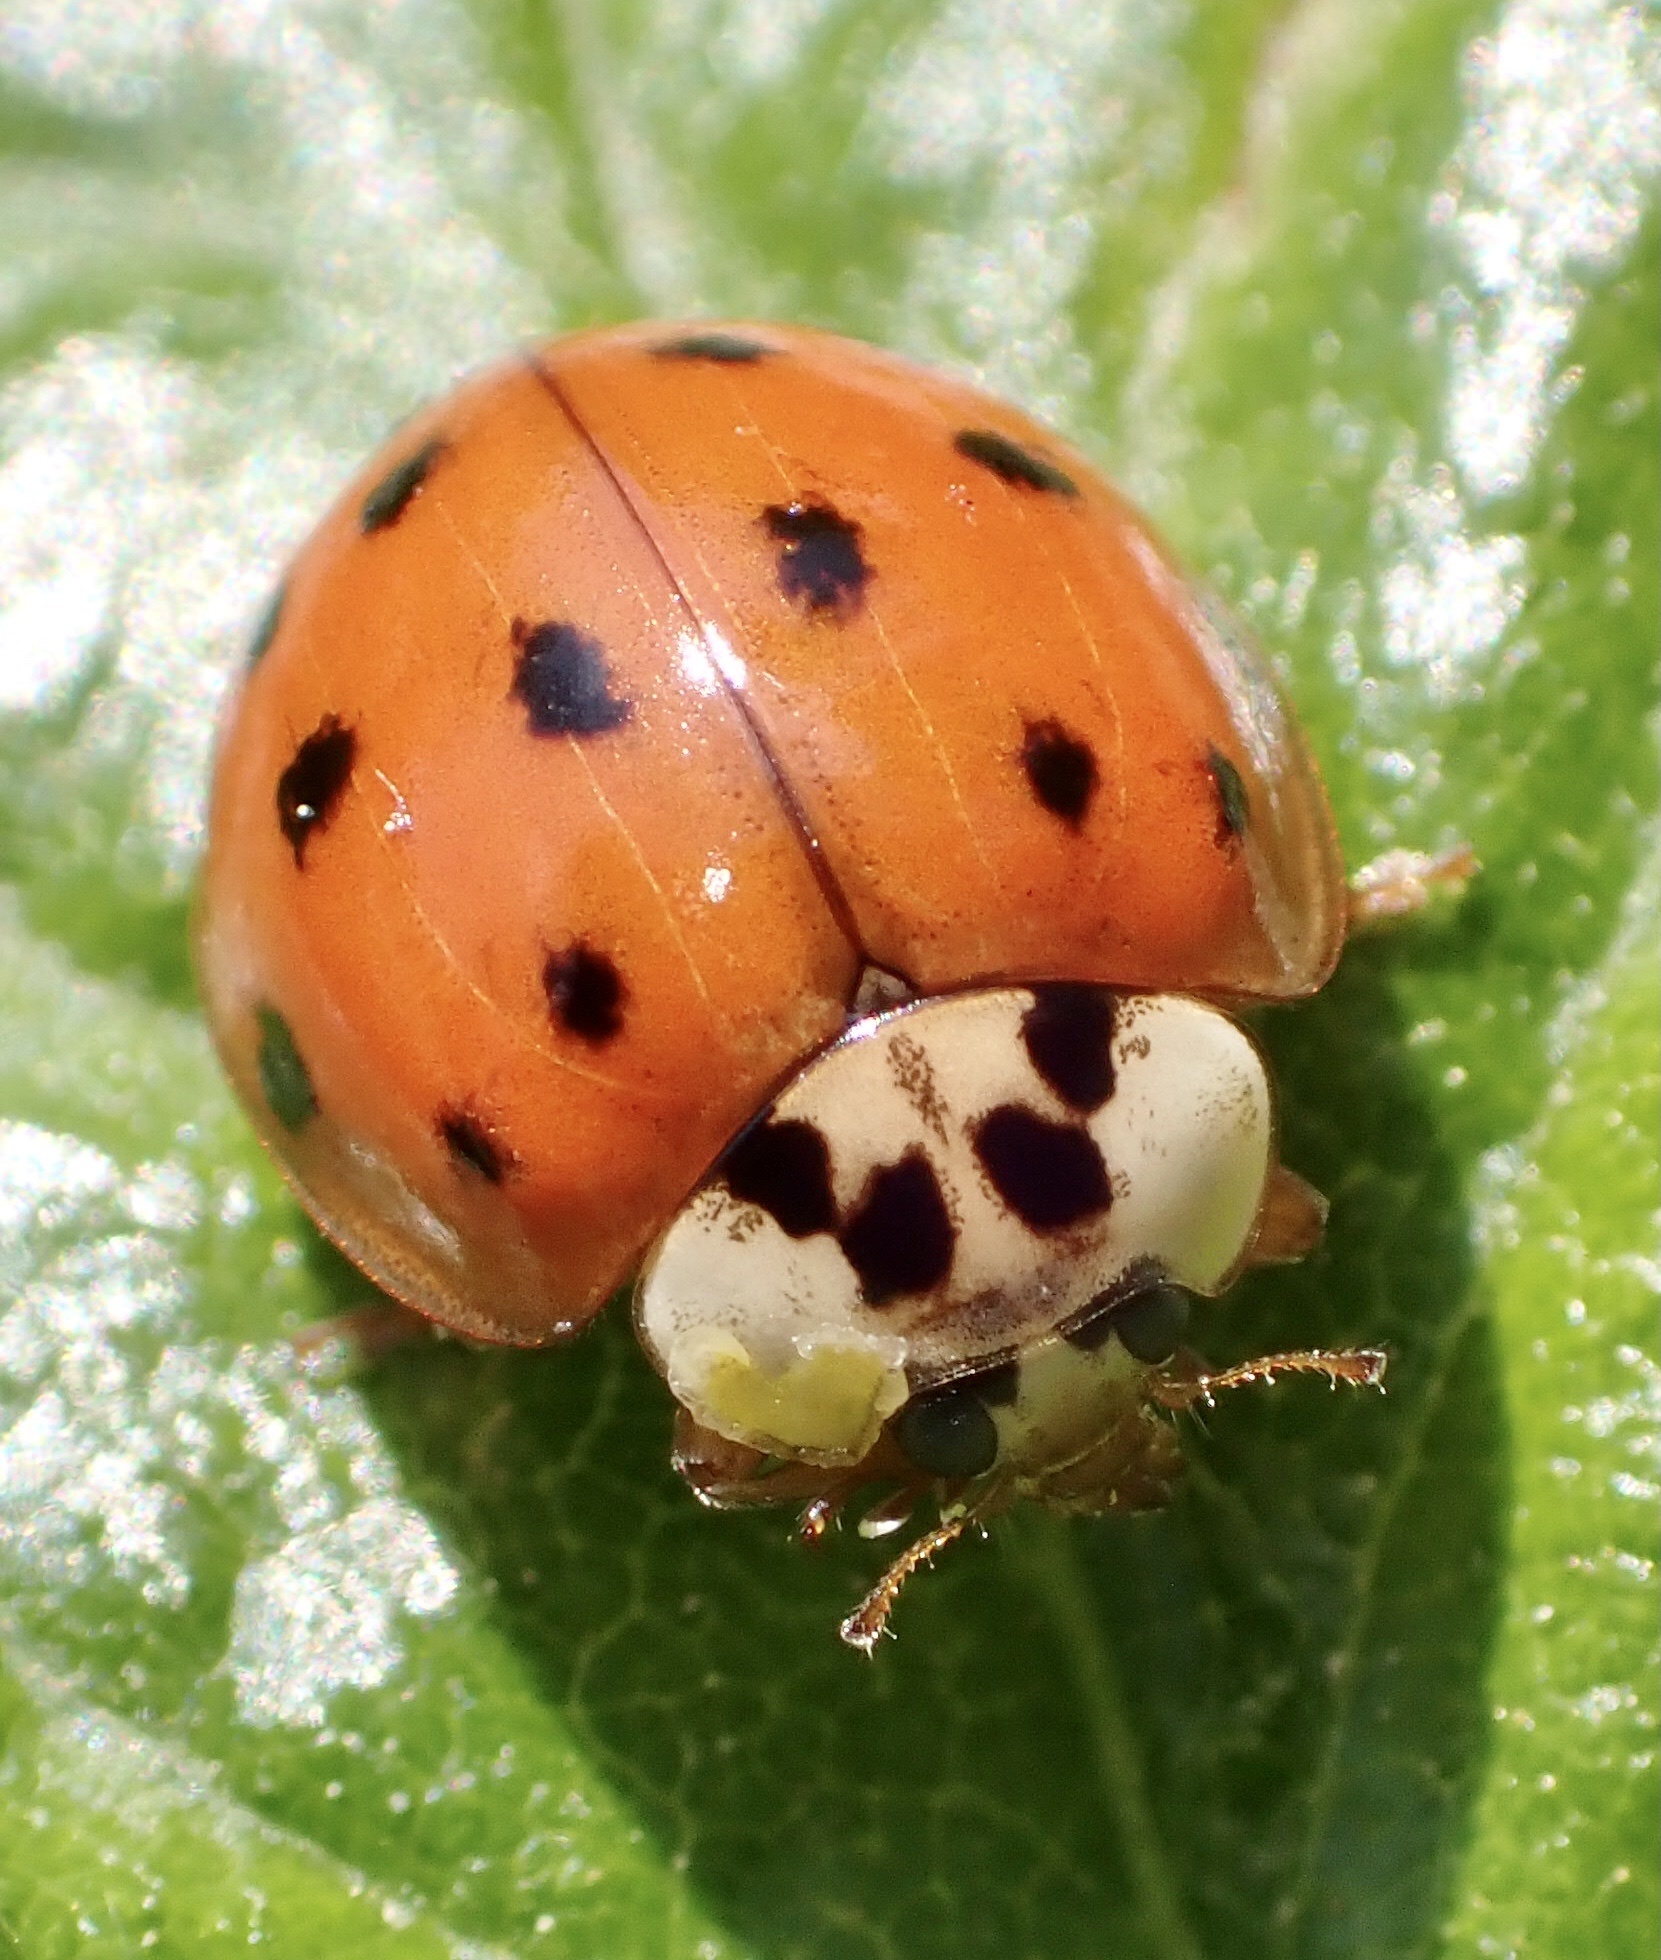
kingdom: Animalia
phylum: Arthropoda
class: Insecta
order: Coleoptera
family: Coccinellidae
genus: Harmonia
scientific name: Harmonia axyridis
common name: Harlequin ladybird
